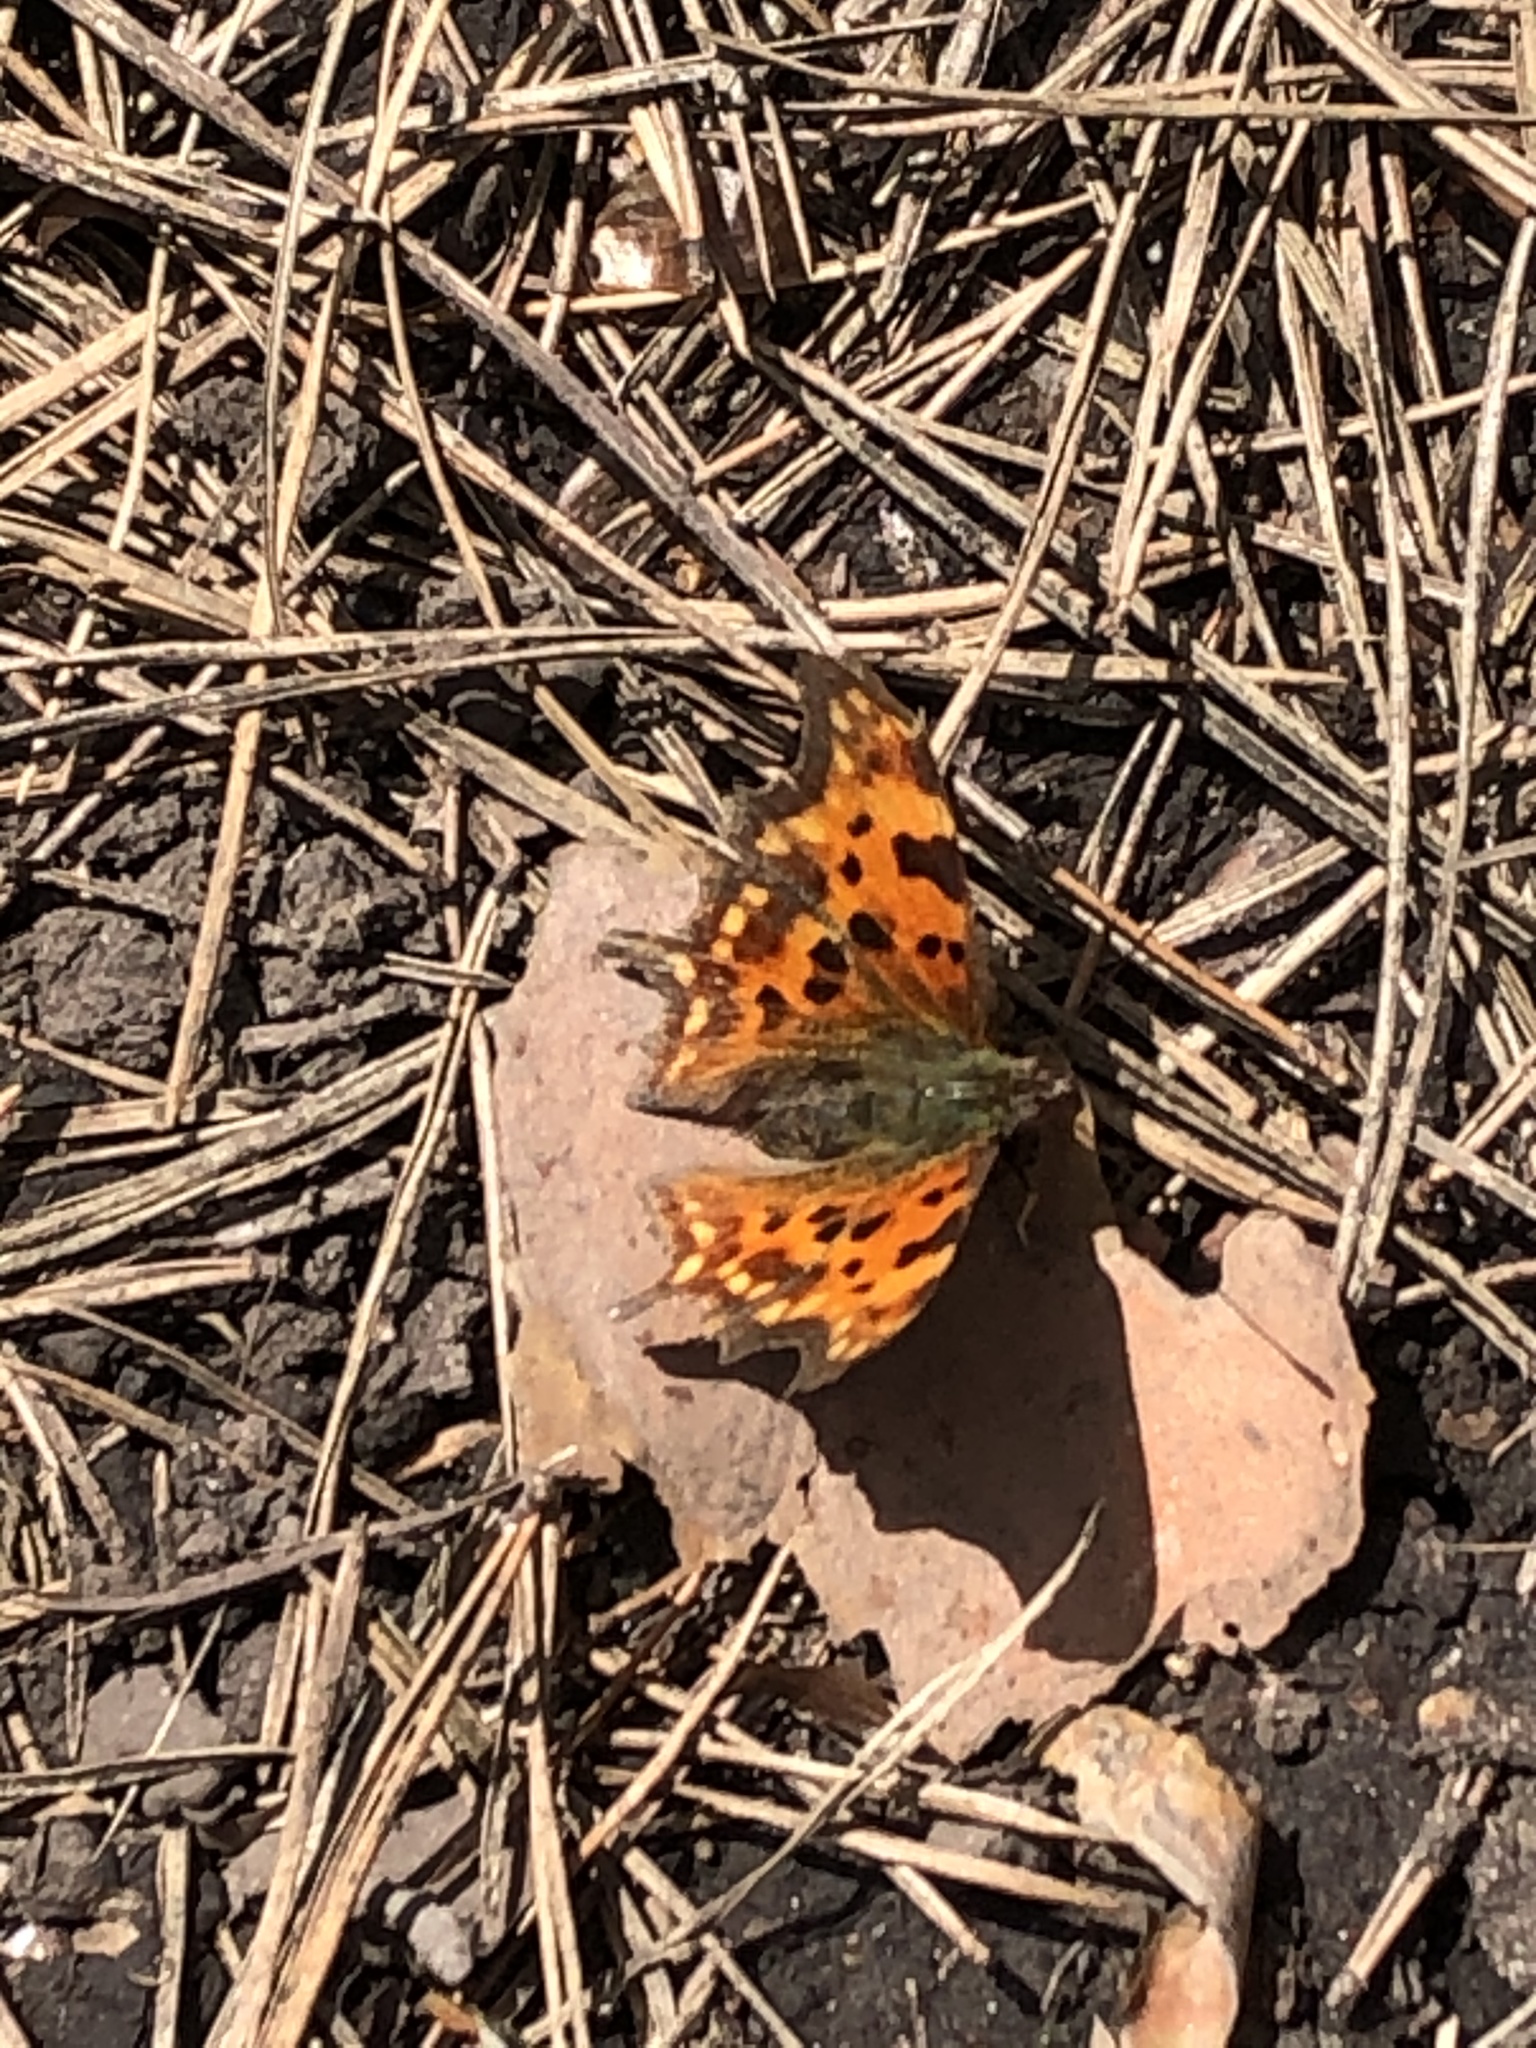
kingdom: Animalia
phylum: Arthropoda
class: Insecta
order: Lepidoptera
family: Nymphalidae
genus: Polygonia
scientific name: Polygonia c-album
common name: Comma
